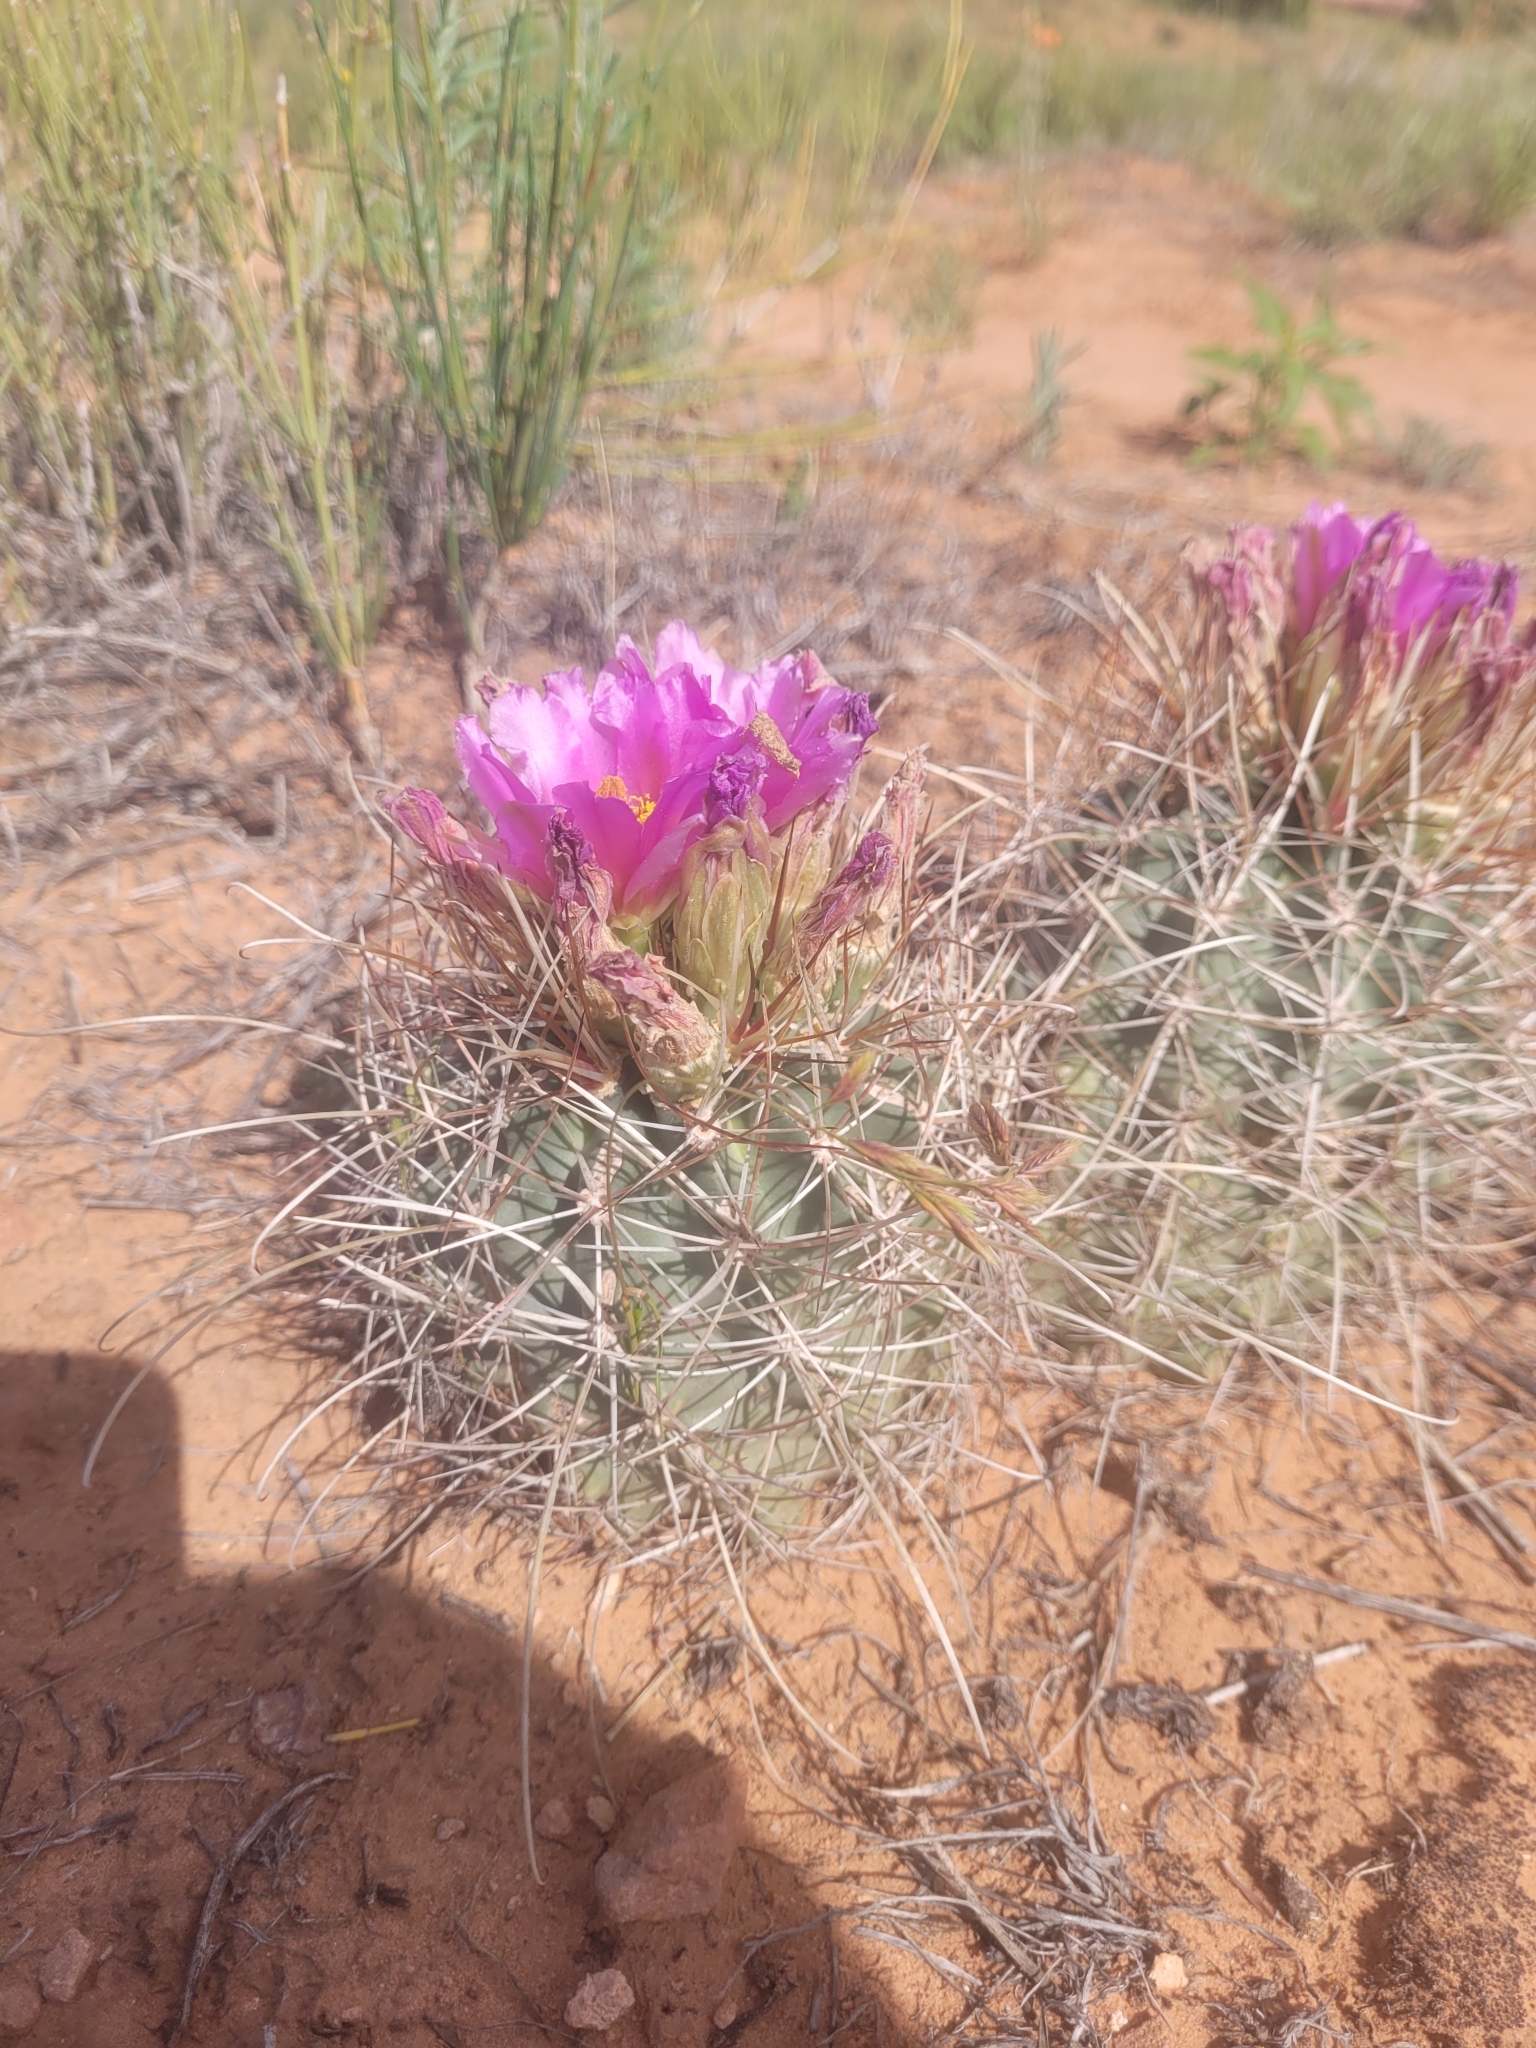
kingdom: Plantae
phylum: Tracheophyta
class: Magnoliopsida
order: Caryophyllales
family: Cactaceae
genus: Sclerocactus
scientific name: Sclerocactus parviflorus
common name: Small-flower fishhook cactus
